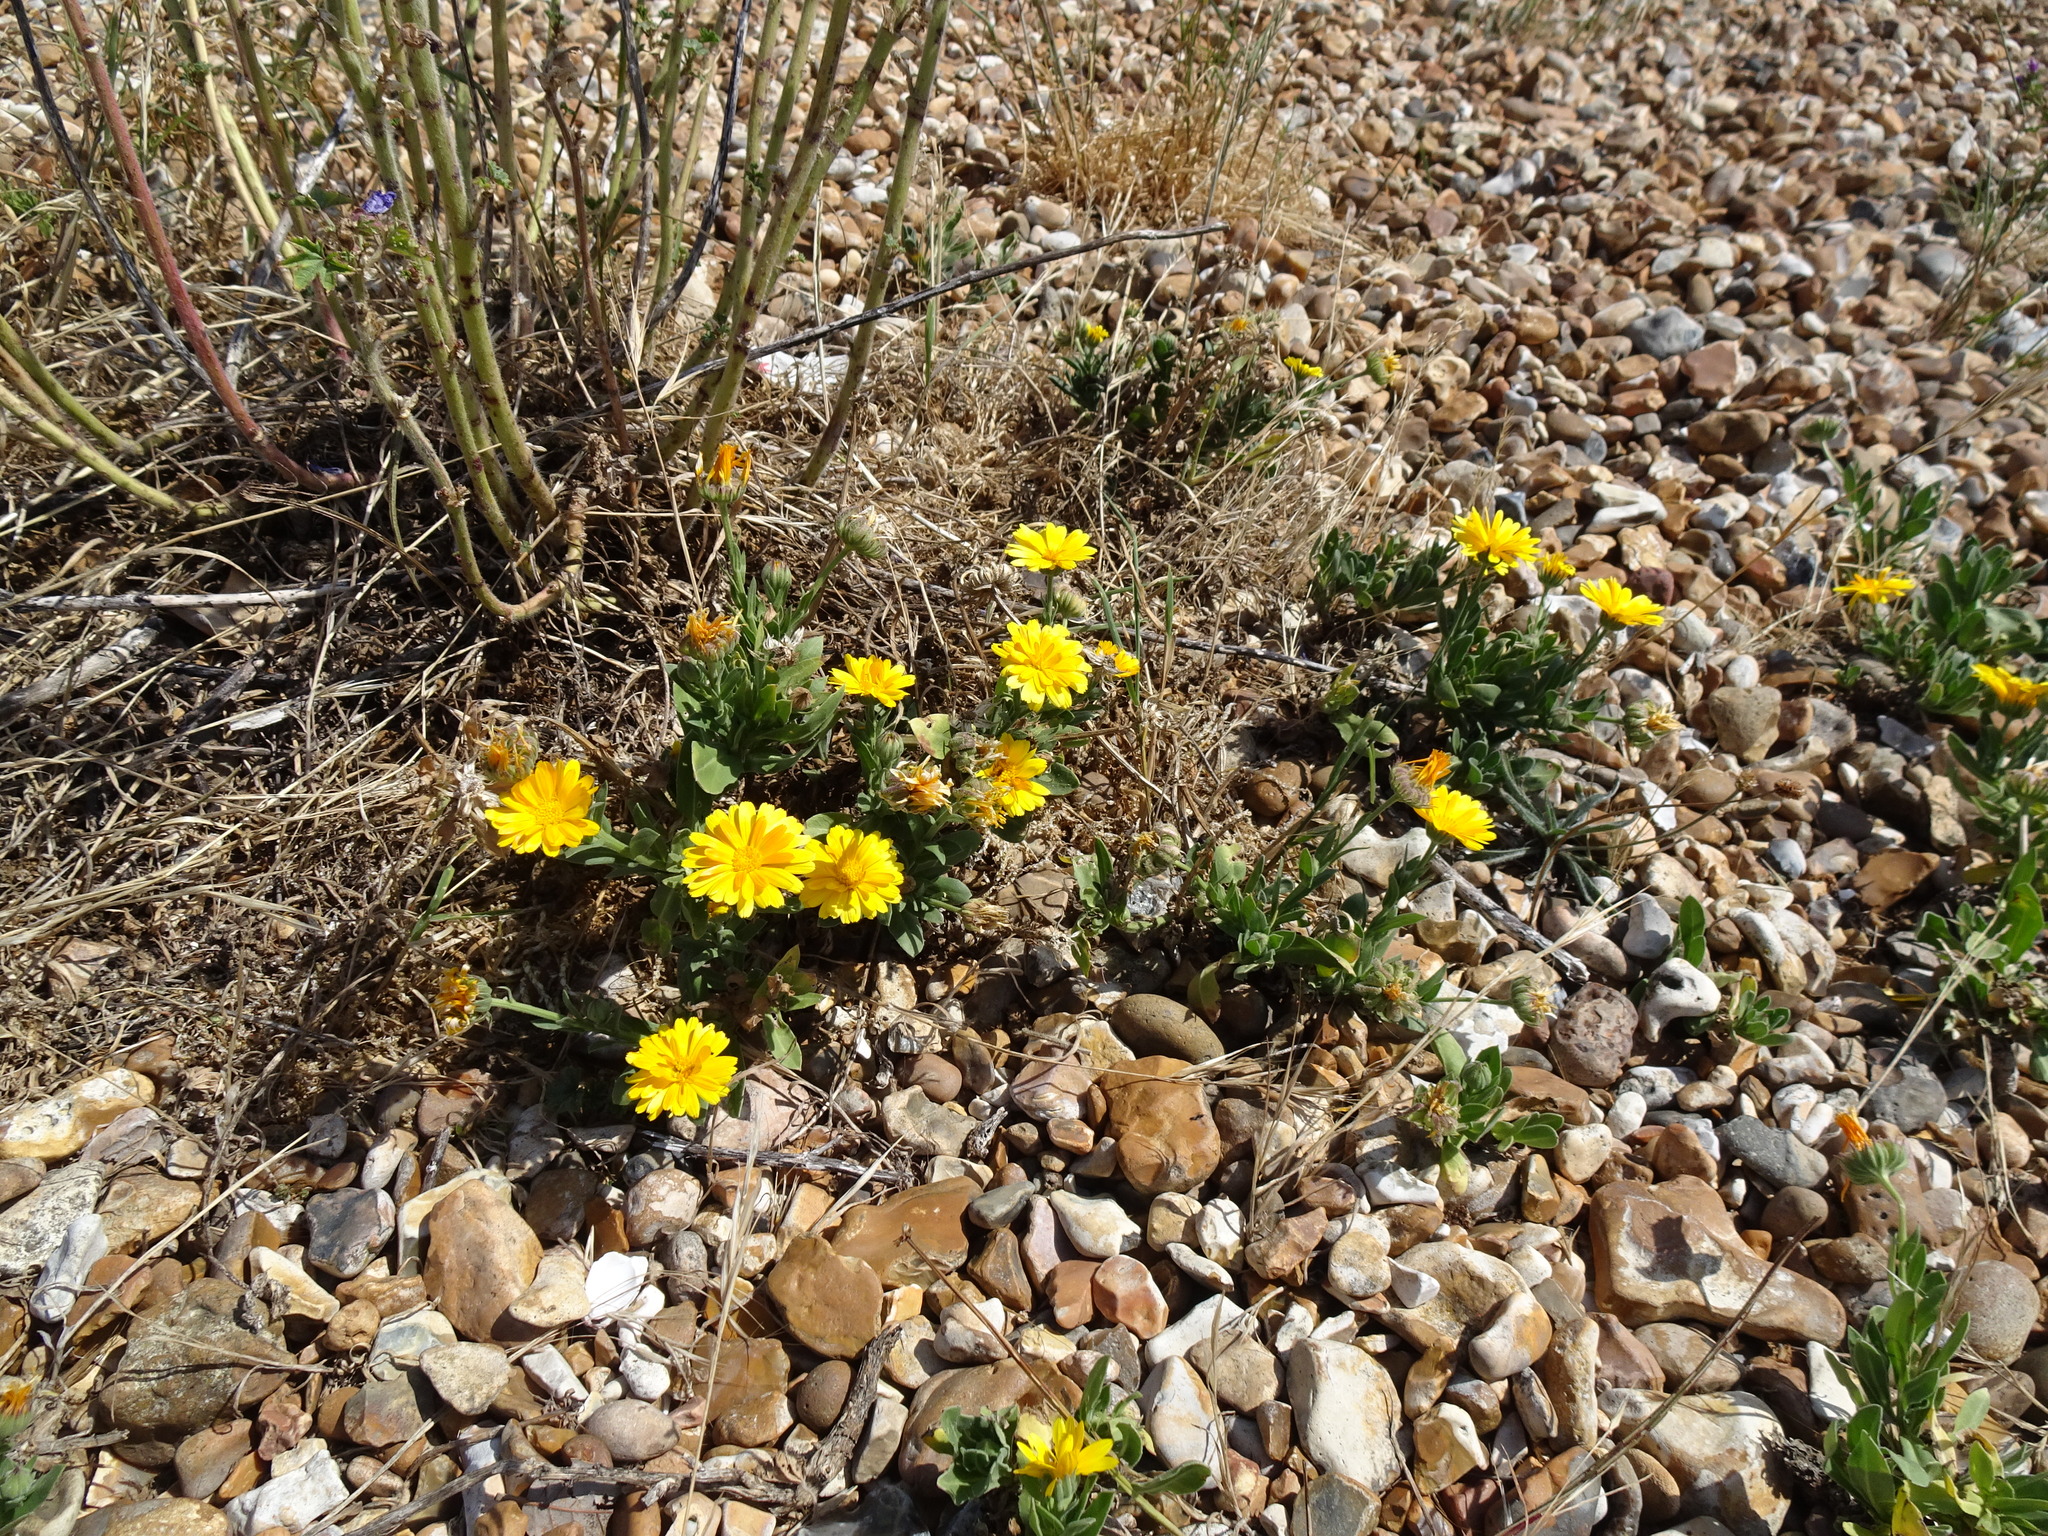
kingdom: Plantae
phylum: Tracheophyta
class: Magnoliopsida
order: Asterales
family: Asteraceae
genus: Calendula
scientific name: Calendula officinalis
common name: Pot marigold
